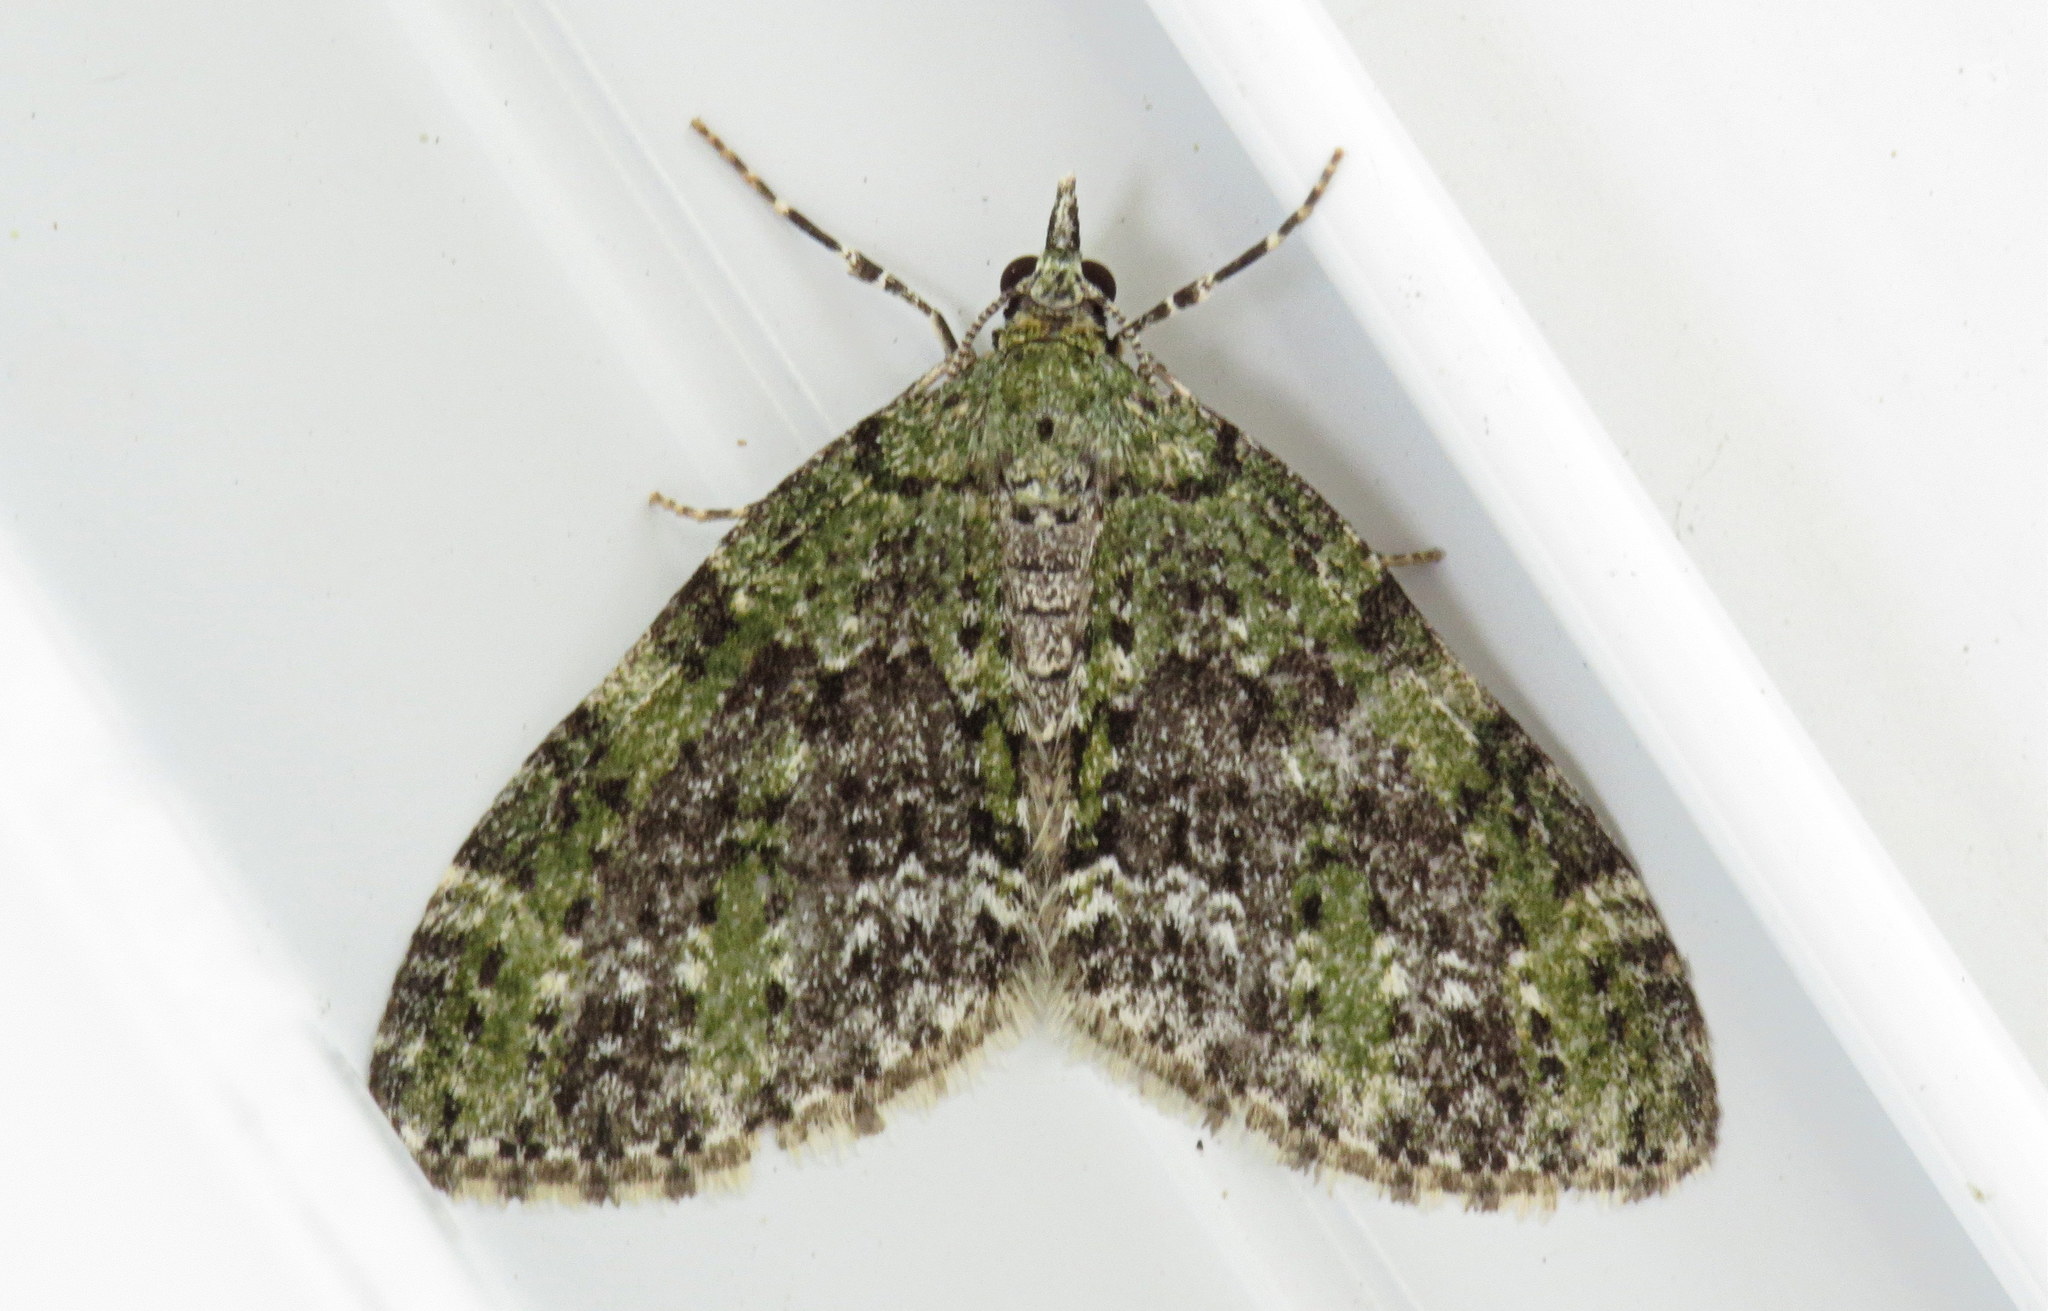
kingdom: Animalia
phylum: Arthropoda
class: Insecta
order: Lepidoptera
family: Geometridae
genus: Acasis
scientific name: Acasis viridata
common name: Olive-and-black carpet moth
